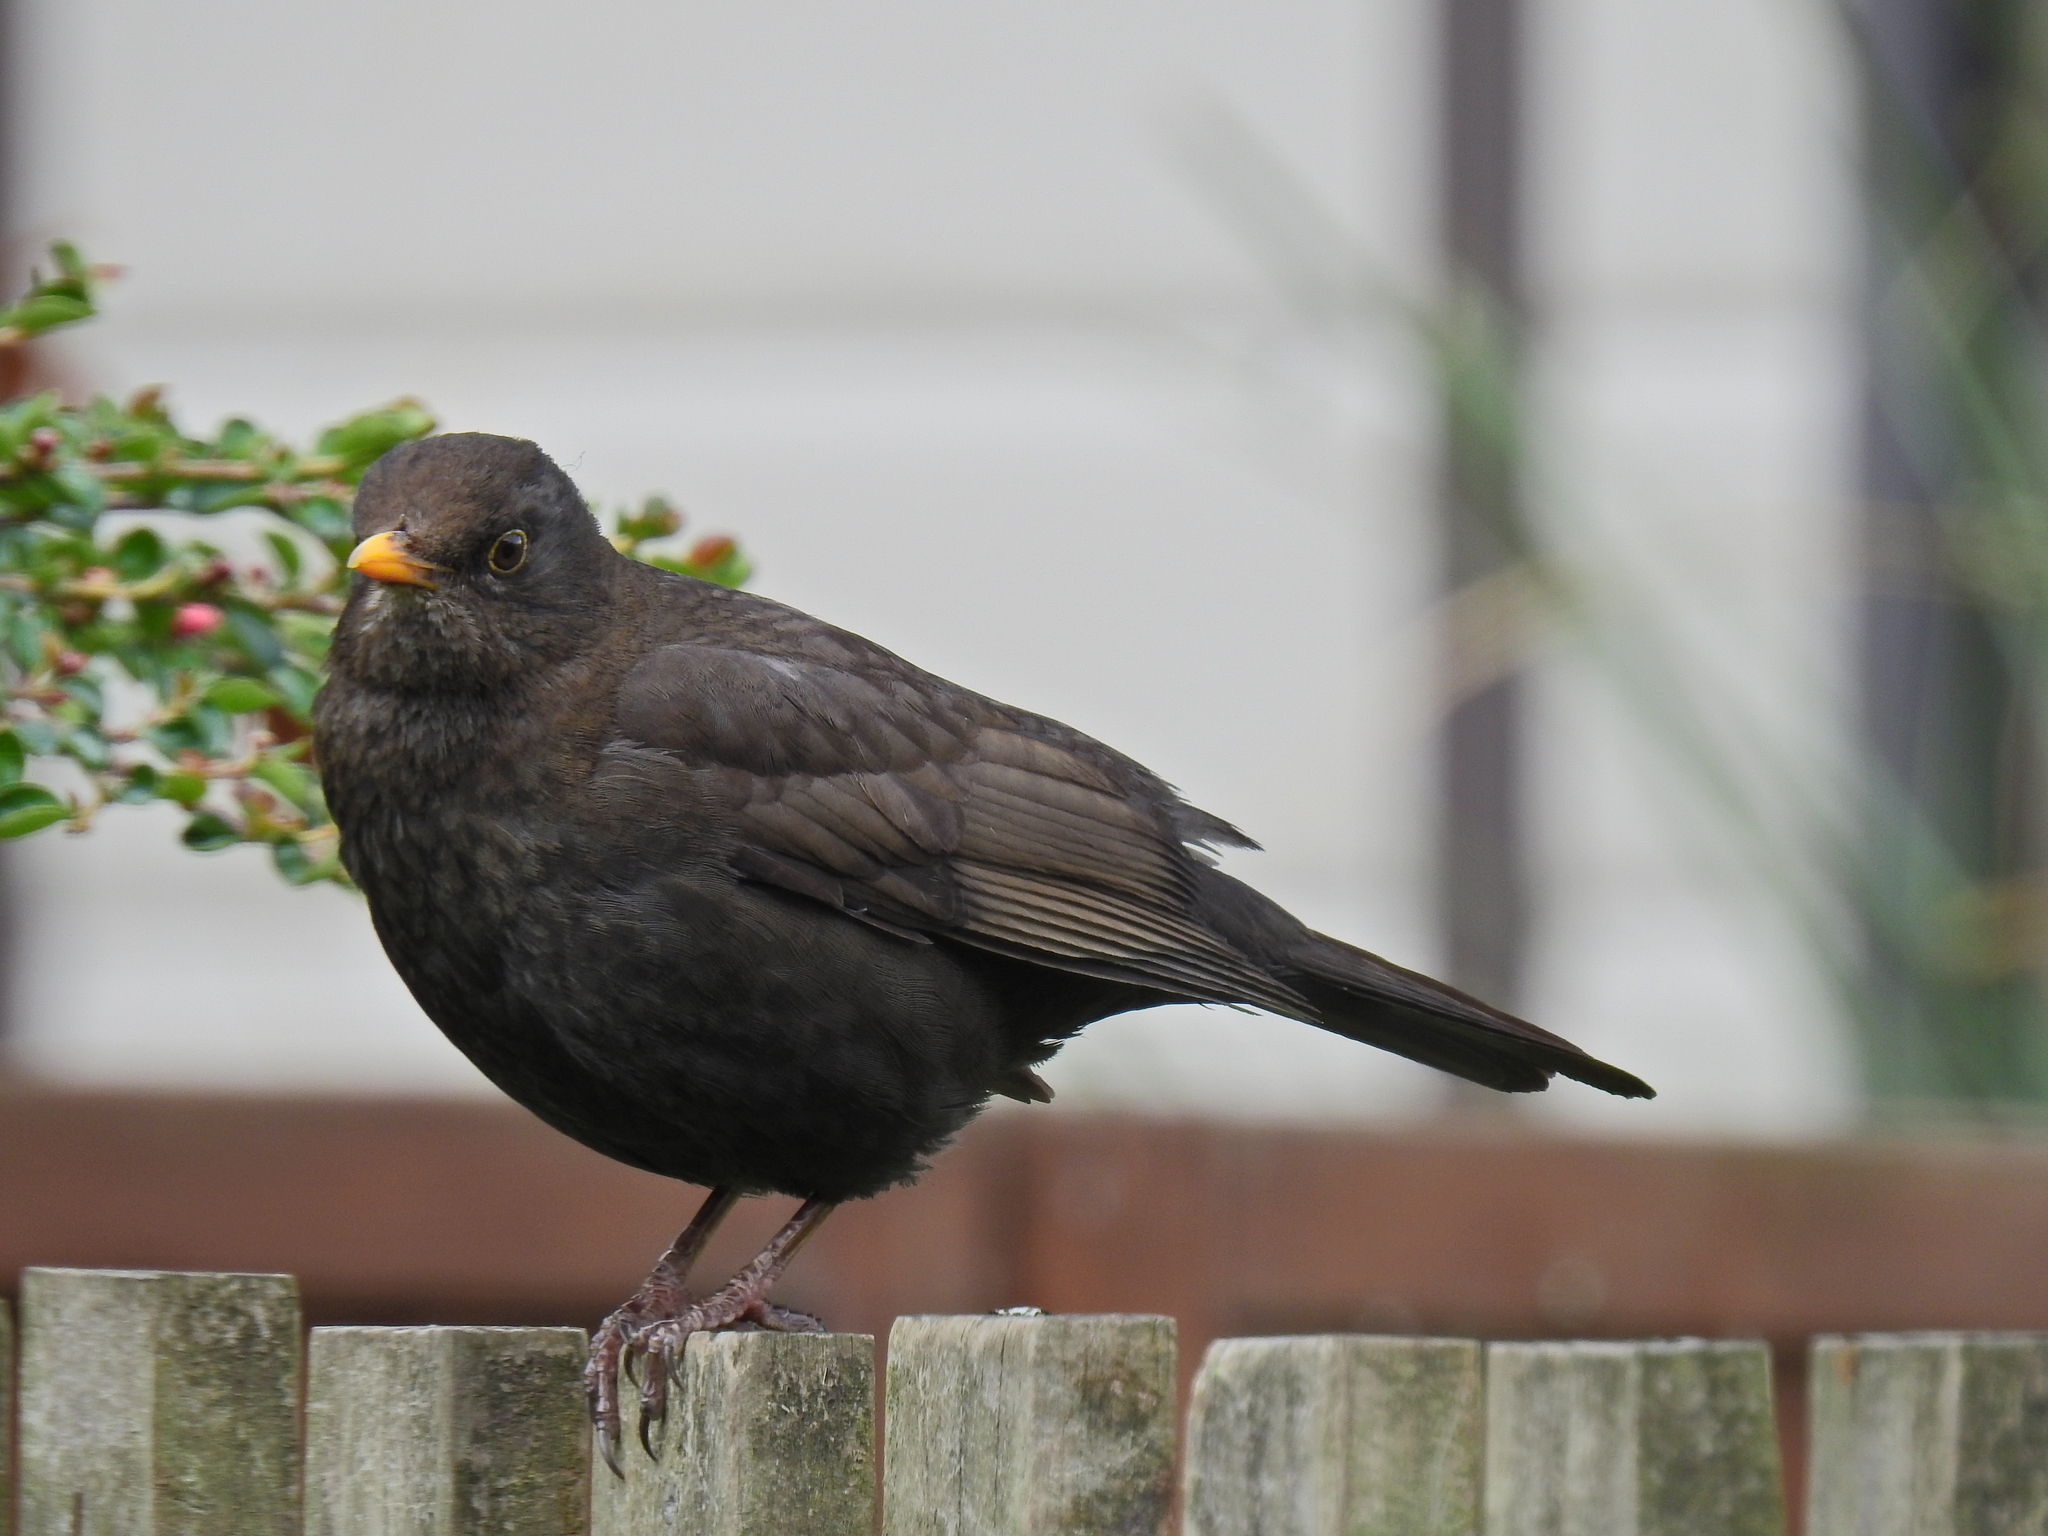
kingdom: Animalia
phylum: Chordata
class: Aves
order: Passeriformes
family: Turdidae
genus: Turdus
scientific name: Turdus merula
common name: Common blackbird
